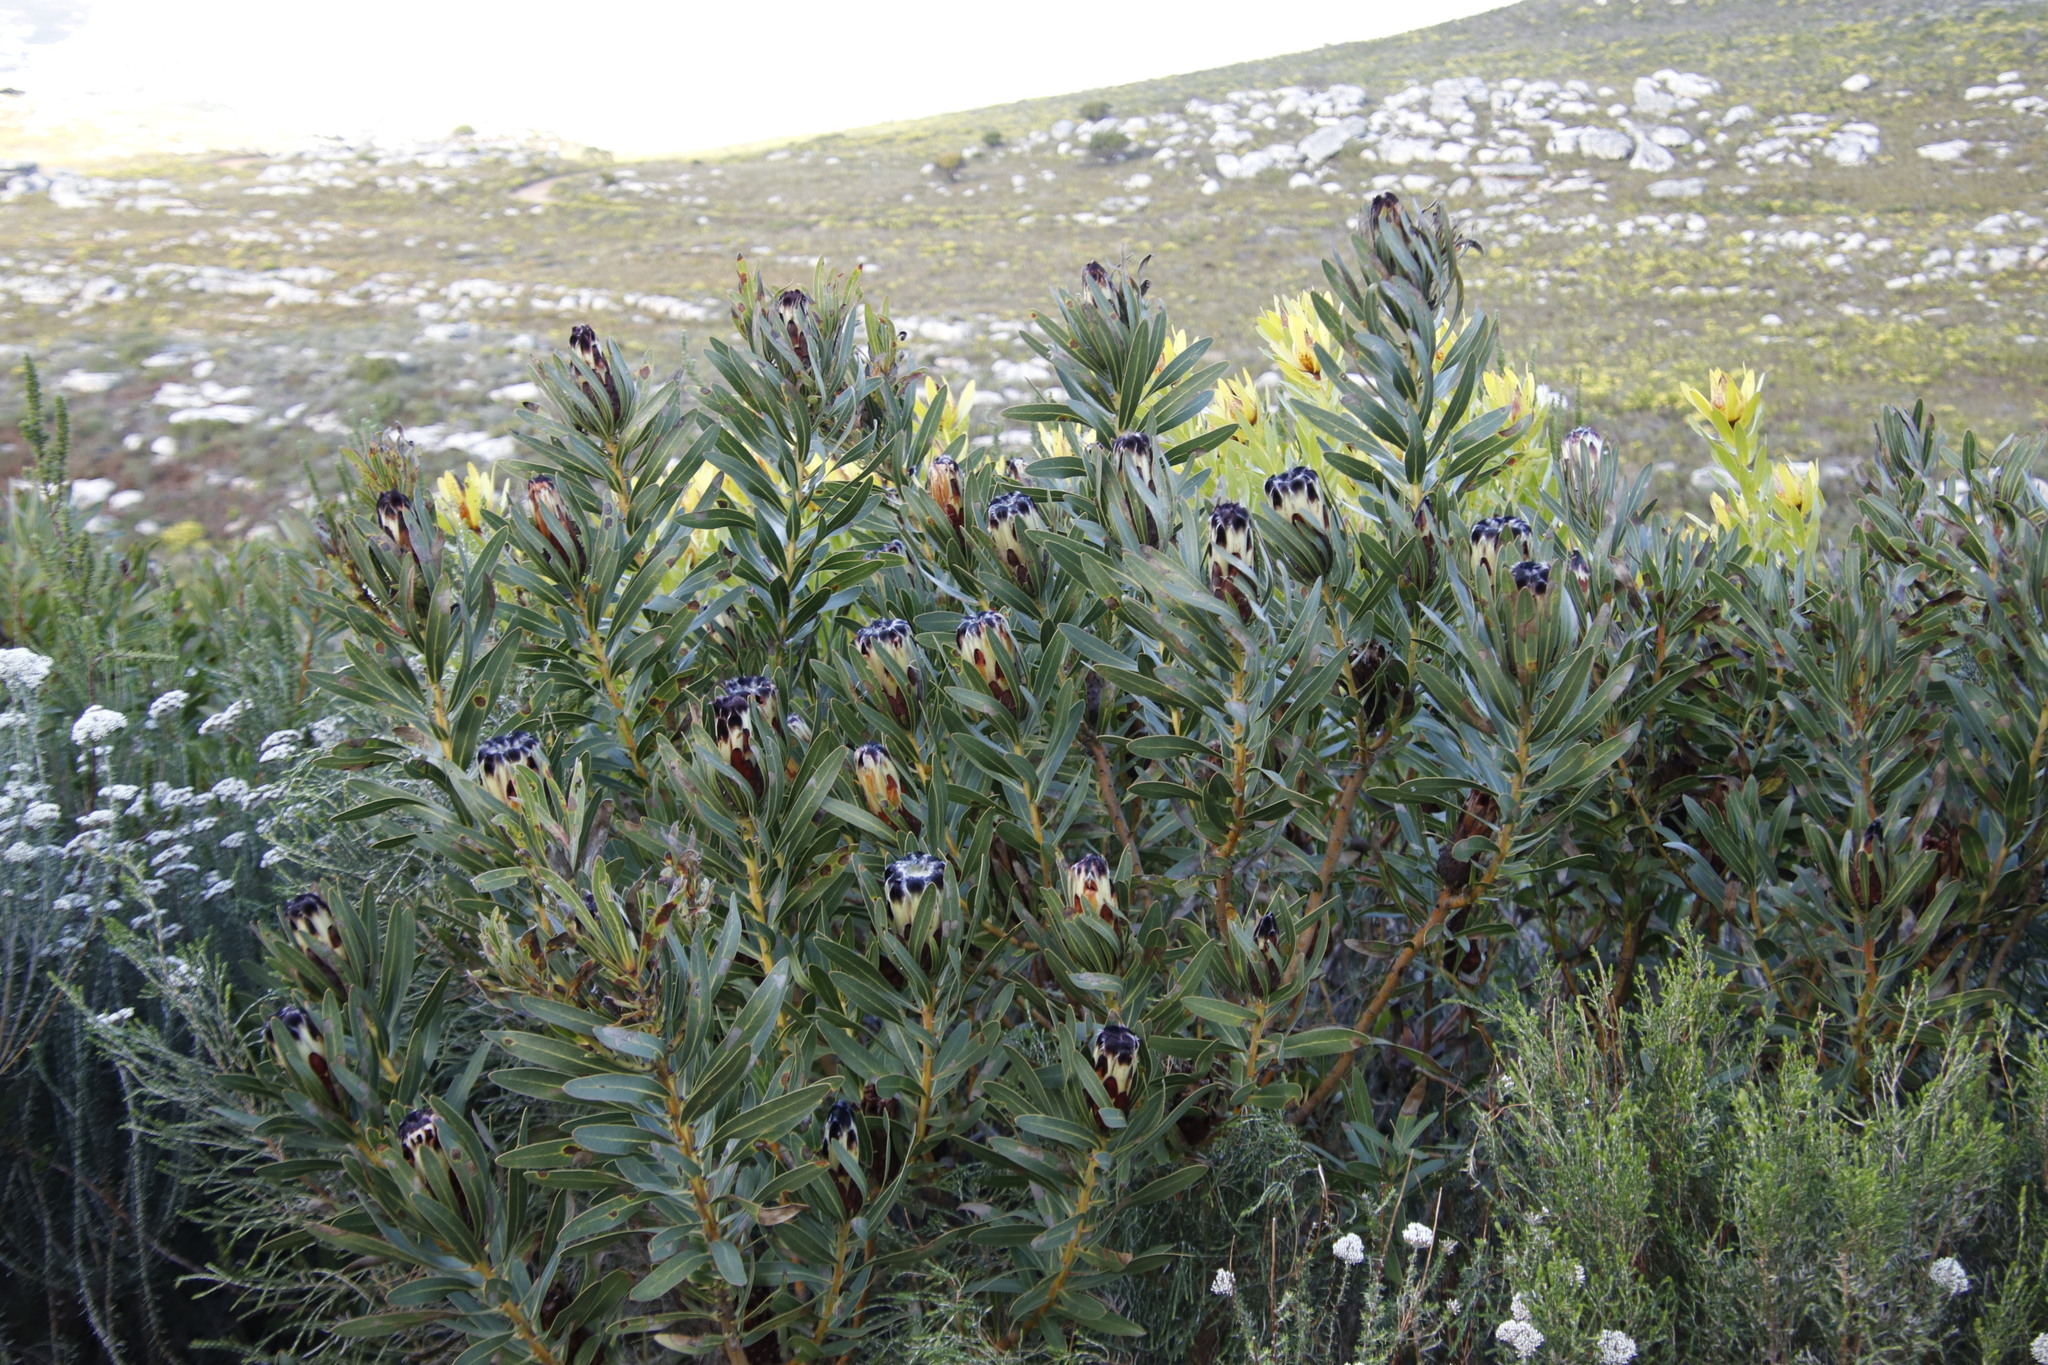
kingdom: Plantae
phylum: Tracheophyta
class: Magnoliopsida
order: Proteales
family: Proteaceae
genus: Protea
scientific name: Protea lepidocarpodendron
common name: Black-bearded protea
